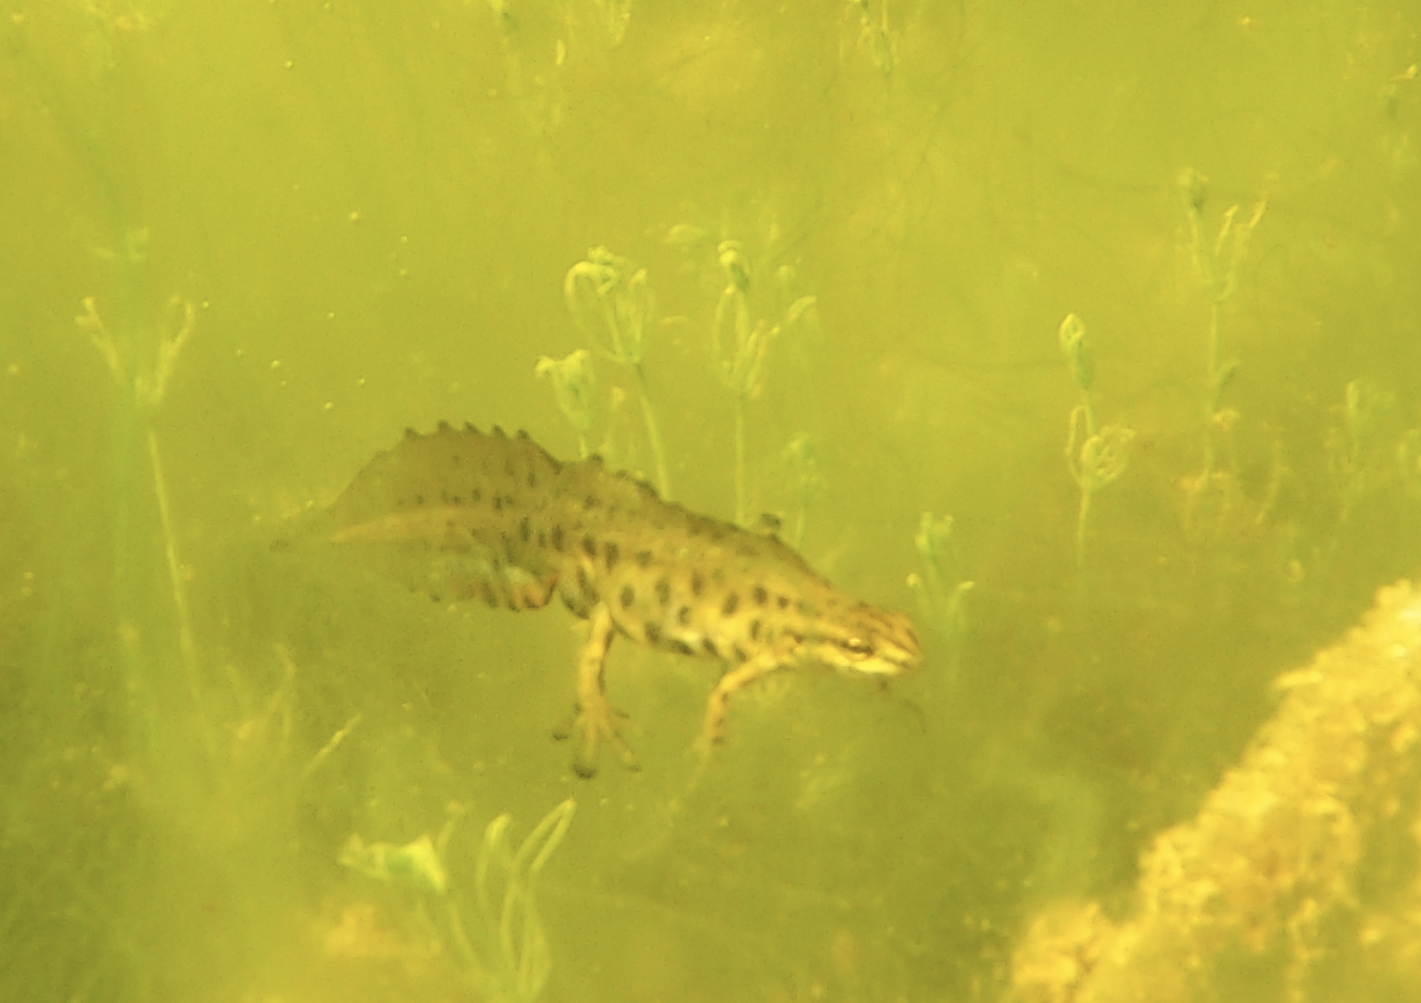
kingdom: Animalia
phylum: Chordata
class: Amphibia
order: Caudata
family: Salamandridae
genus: Lissotriton
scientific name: Lissotriton vulgaris
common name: Smooth newt
